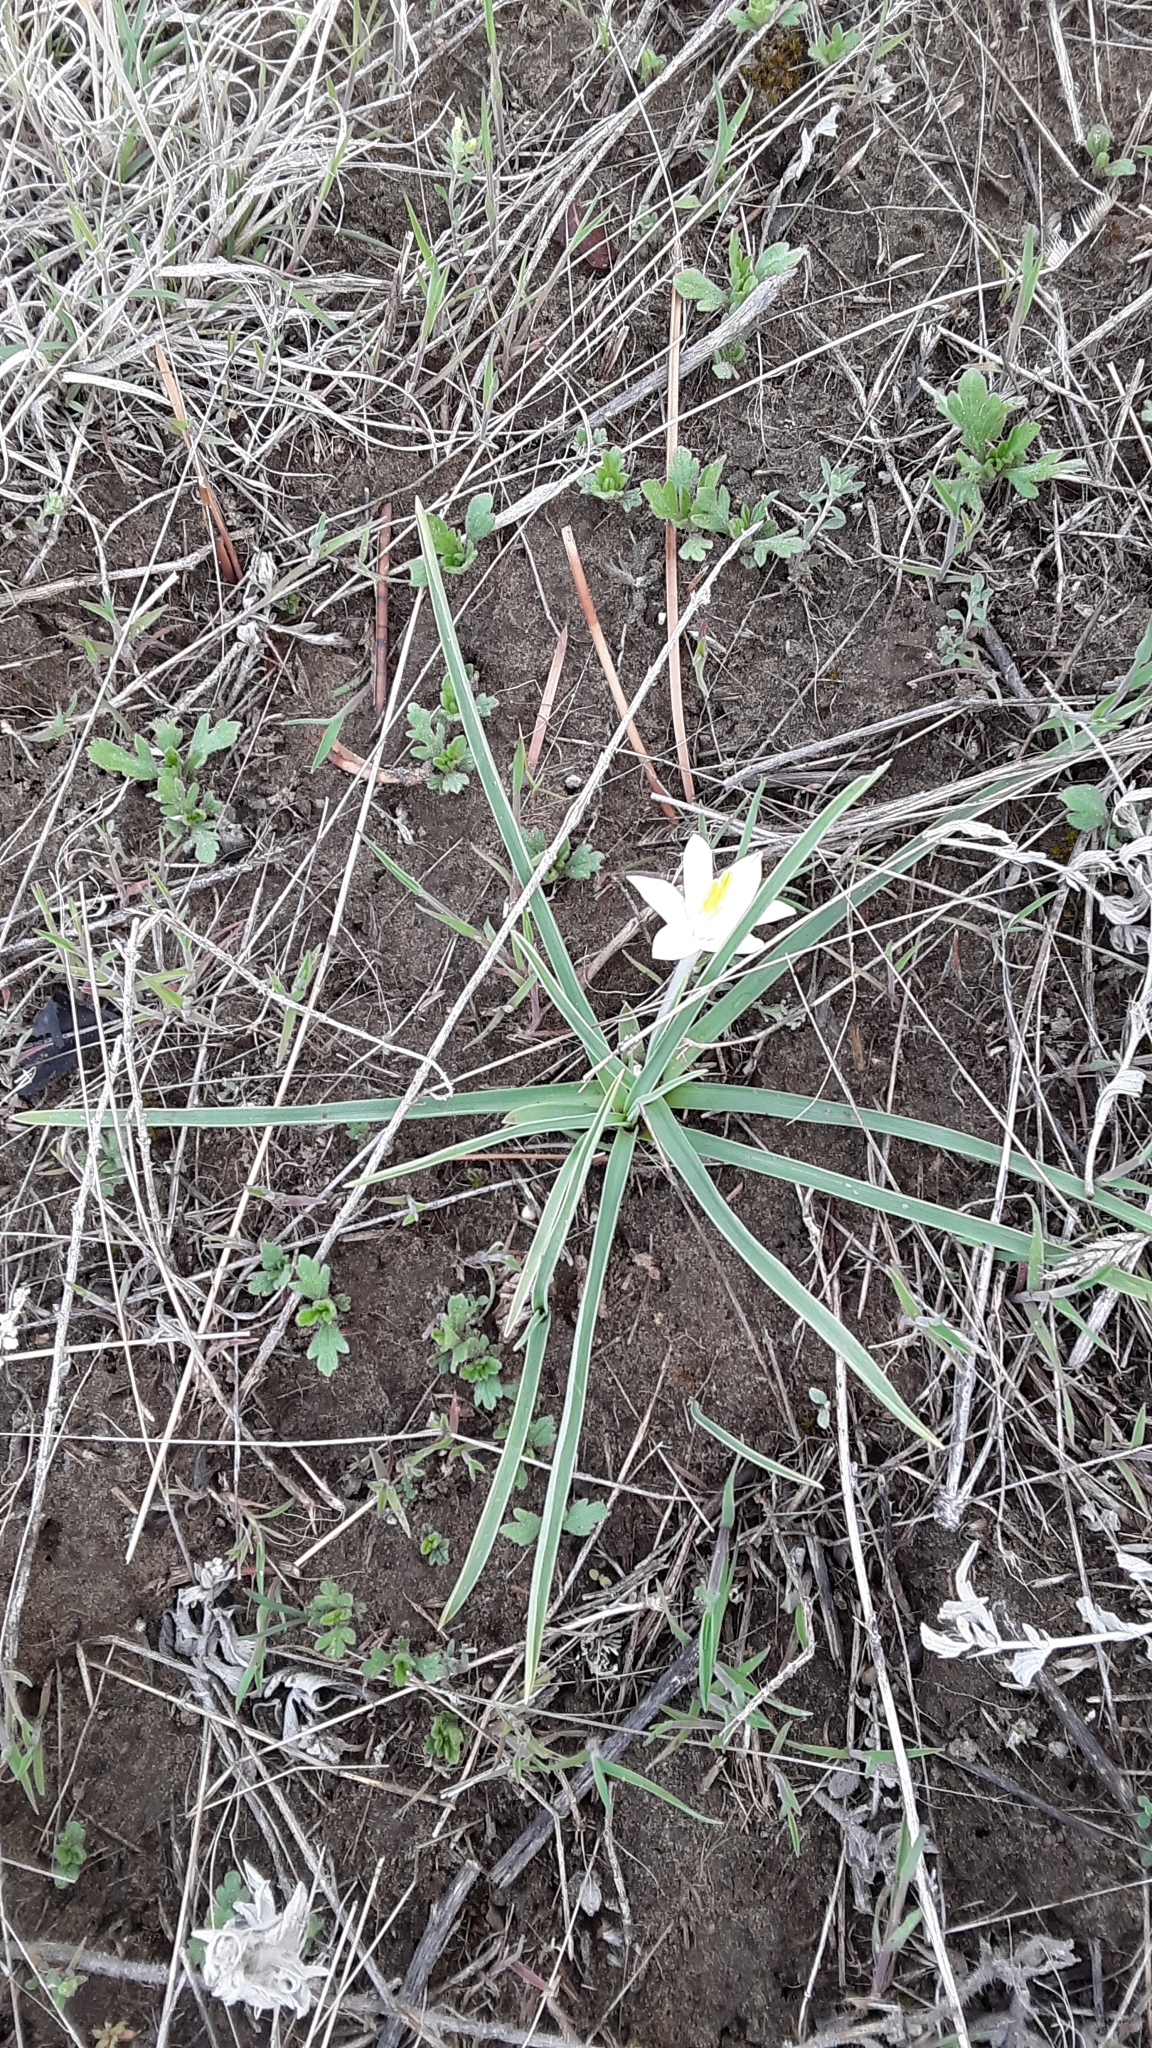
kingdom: Plantae
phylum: Tracheophyta
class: Liliopsida
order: Asparagales
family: Asparagaceae
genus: Leucocrinum
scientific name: Leucocrinum montanum
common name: Mountain-lily
